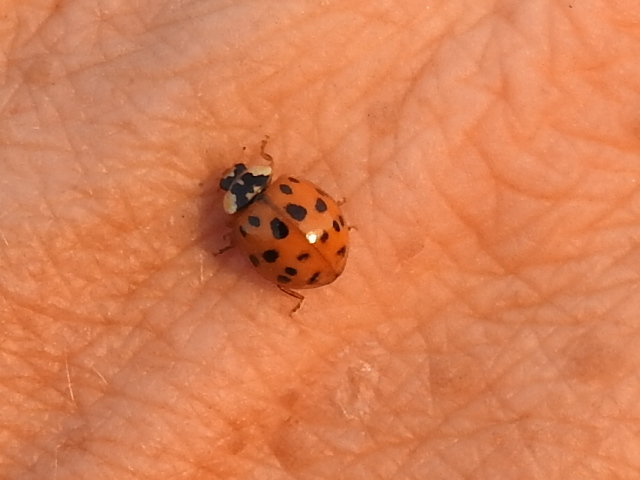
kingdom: Animalia
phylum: Arthropoda
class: Insecta
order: Coleoptera
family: Coccinellidae
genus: Harmonia
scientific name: Harmonia axyridis
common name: Harlequin ladybird
